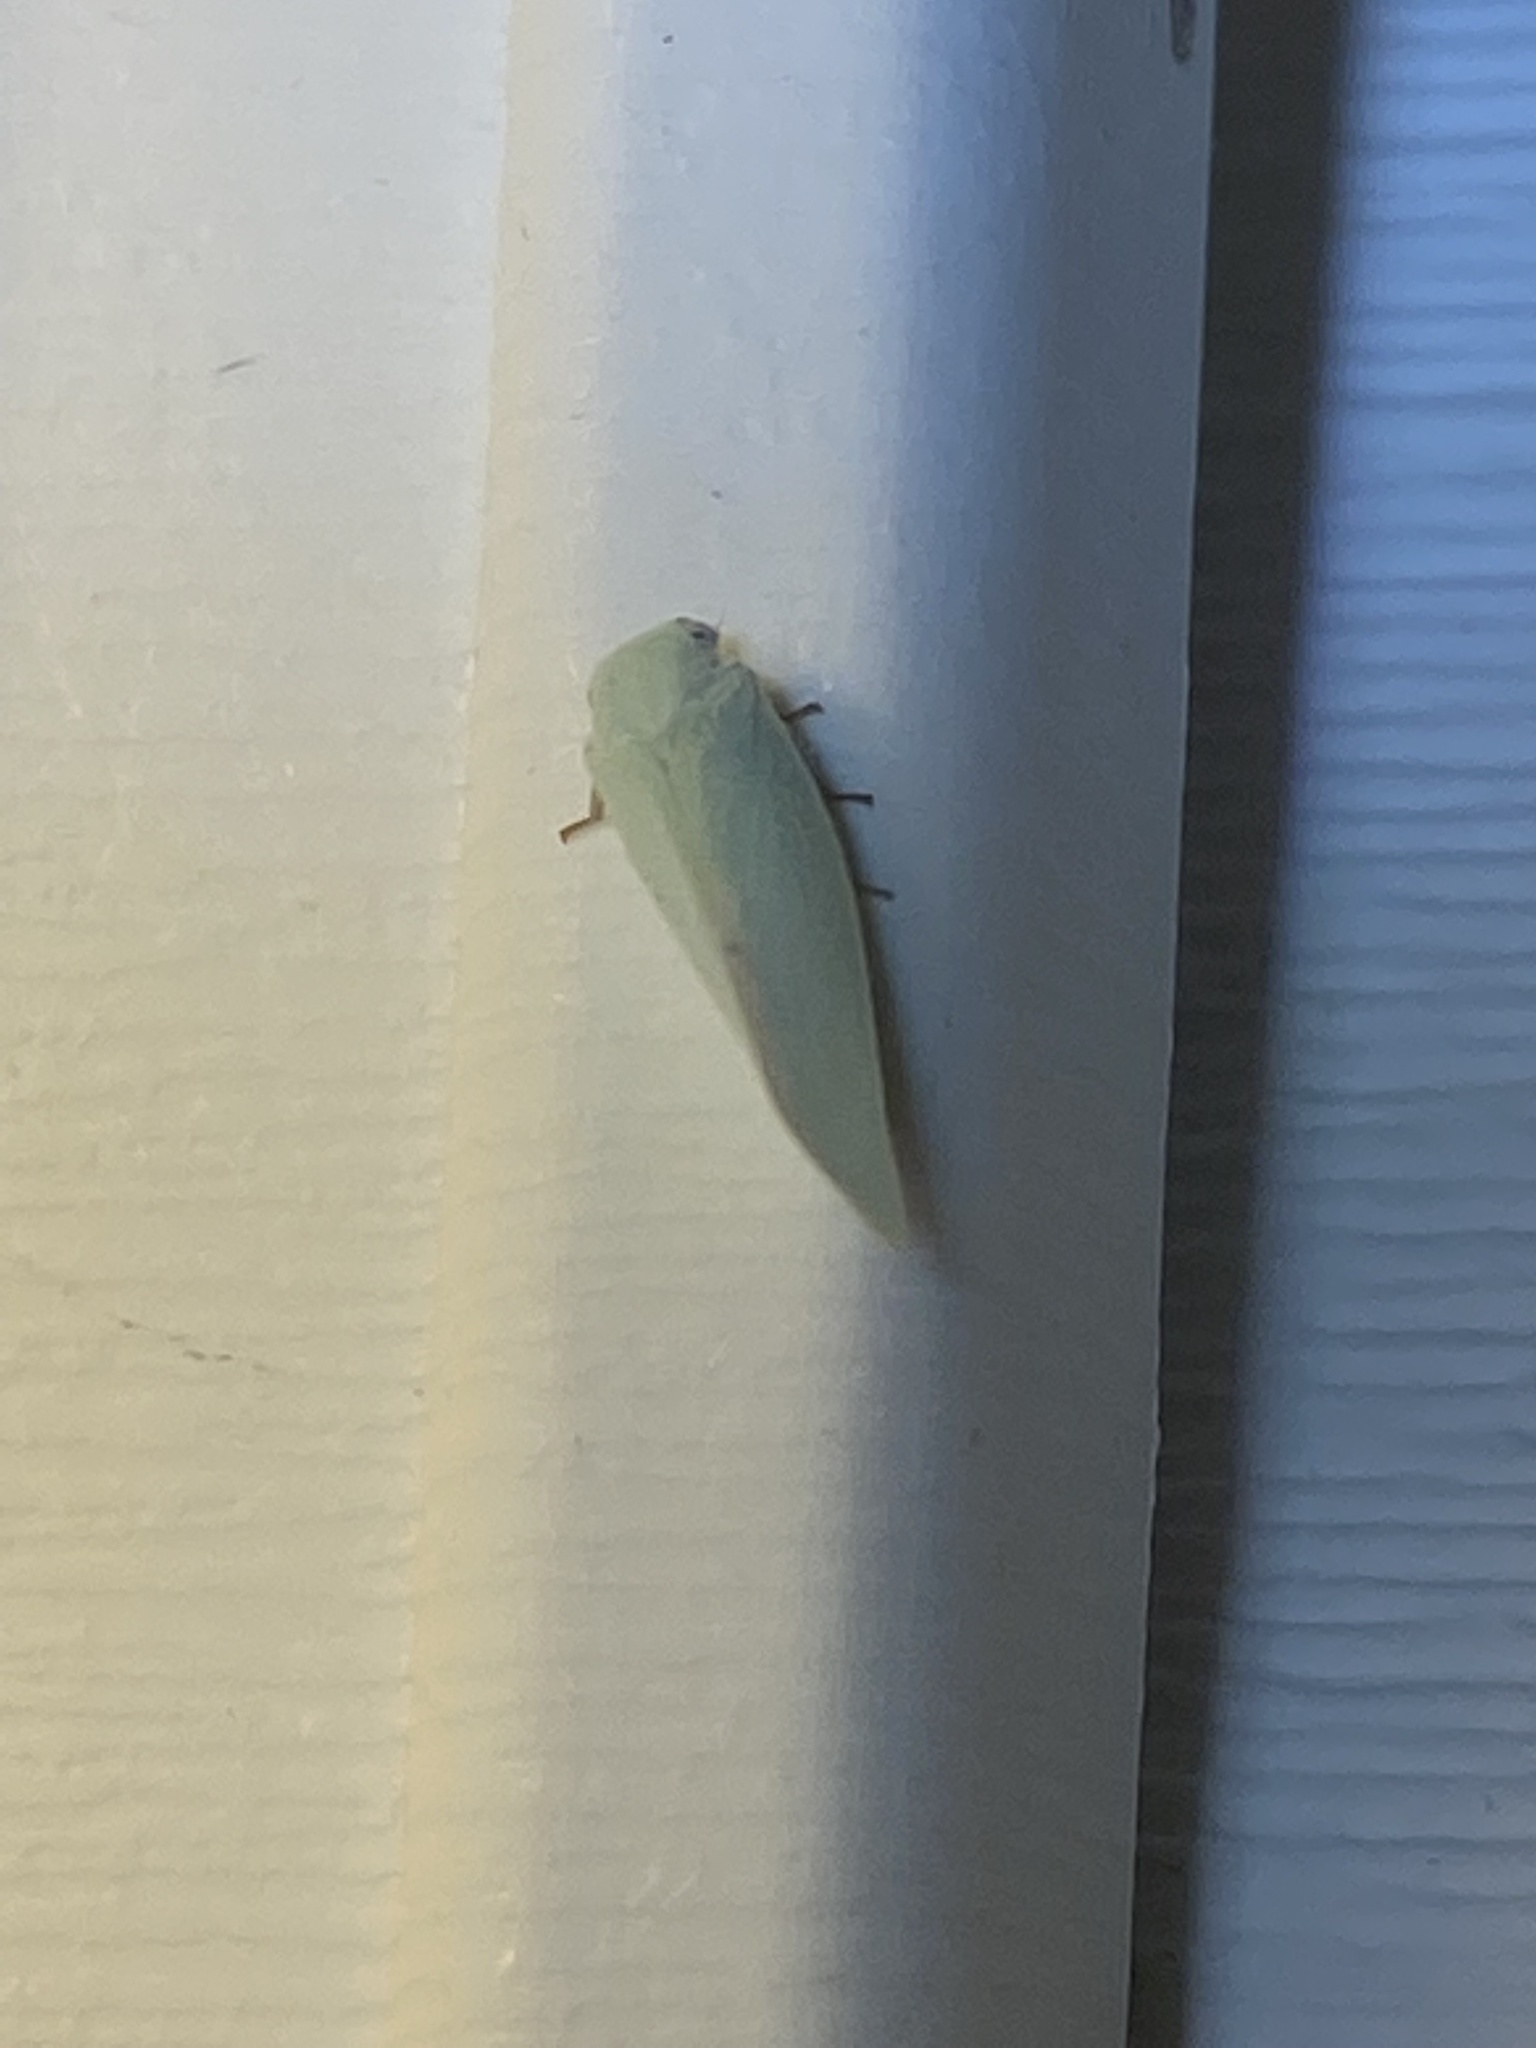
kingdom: Animalia
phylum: Arthropoda
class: Insecta
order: Hemiptera
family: Flatidae
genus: Flatormenis
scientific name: Flatormenis proxima
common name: Northern flatid planthopper
